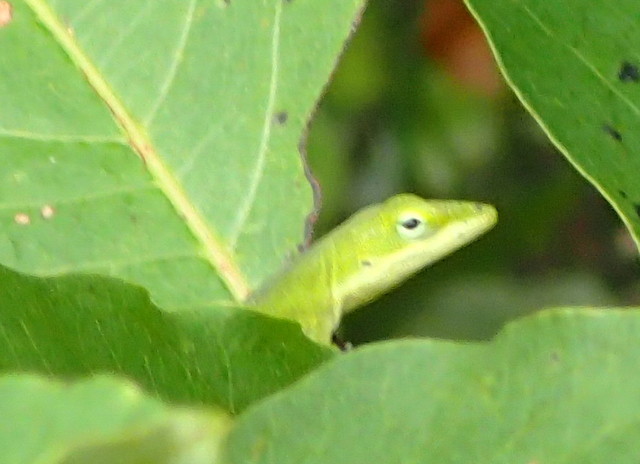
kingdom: Animalia
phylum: Chordata
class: Squamata
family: Dactyloidae
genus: Anolis
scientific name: Anolis carolinensis
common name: Green anole
